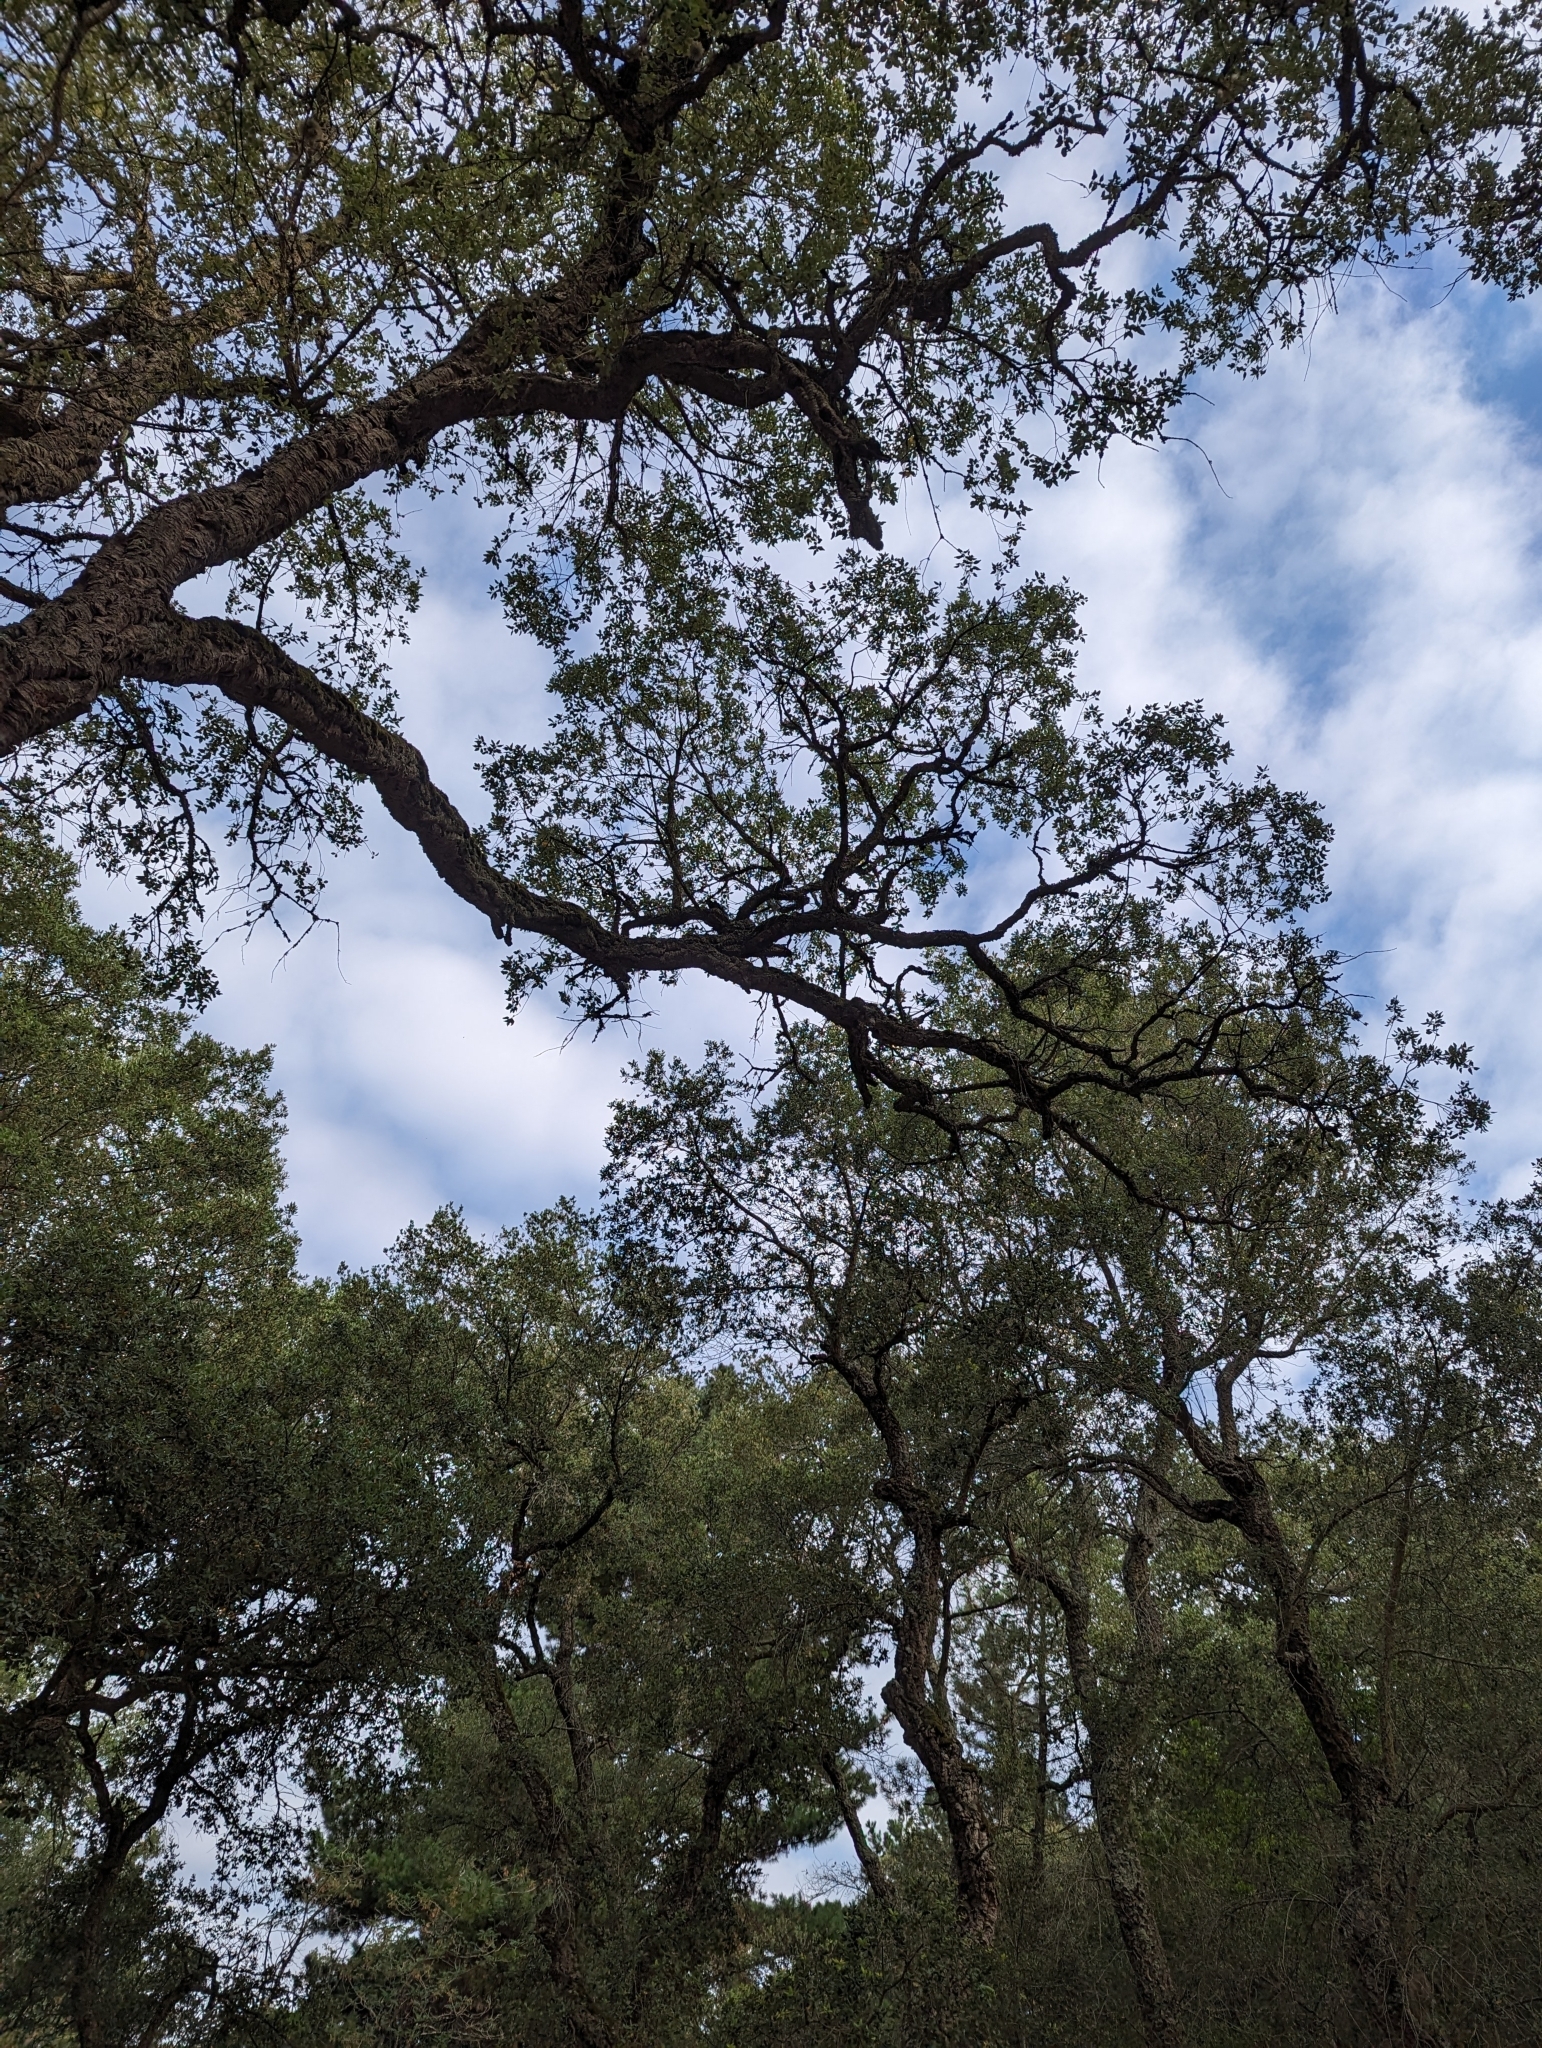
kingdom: Plantae
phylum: Tracheophyta
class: Magnoliopsida
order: Fagales
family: Fagaceae
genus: Quercus
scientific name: Quercus suber
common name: Cork oak
